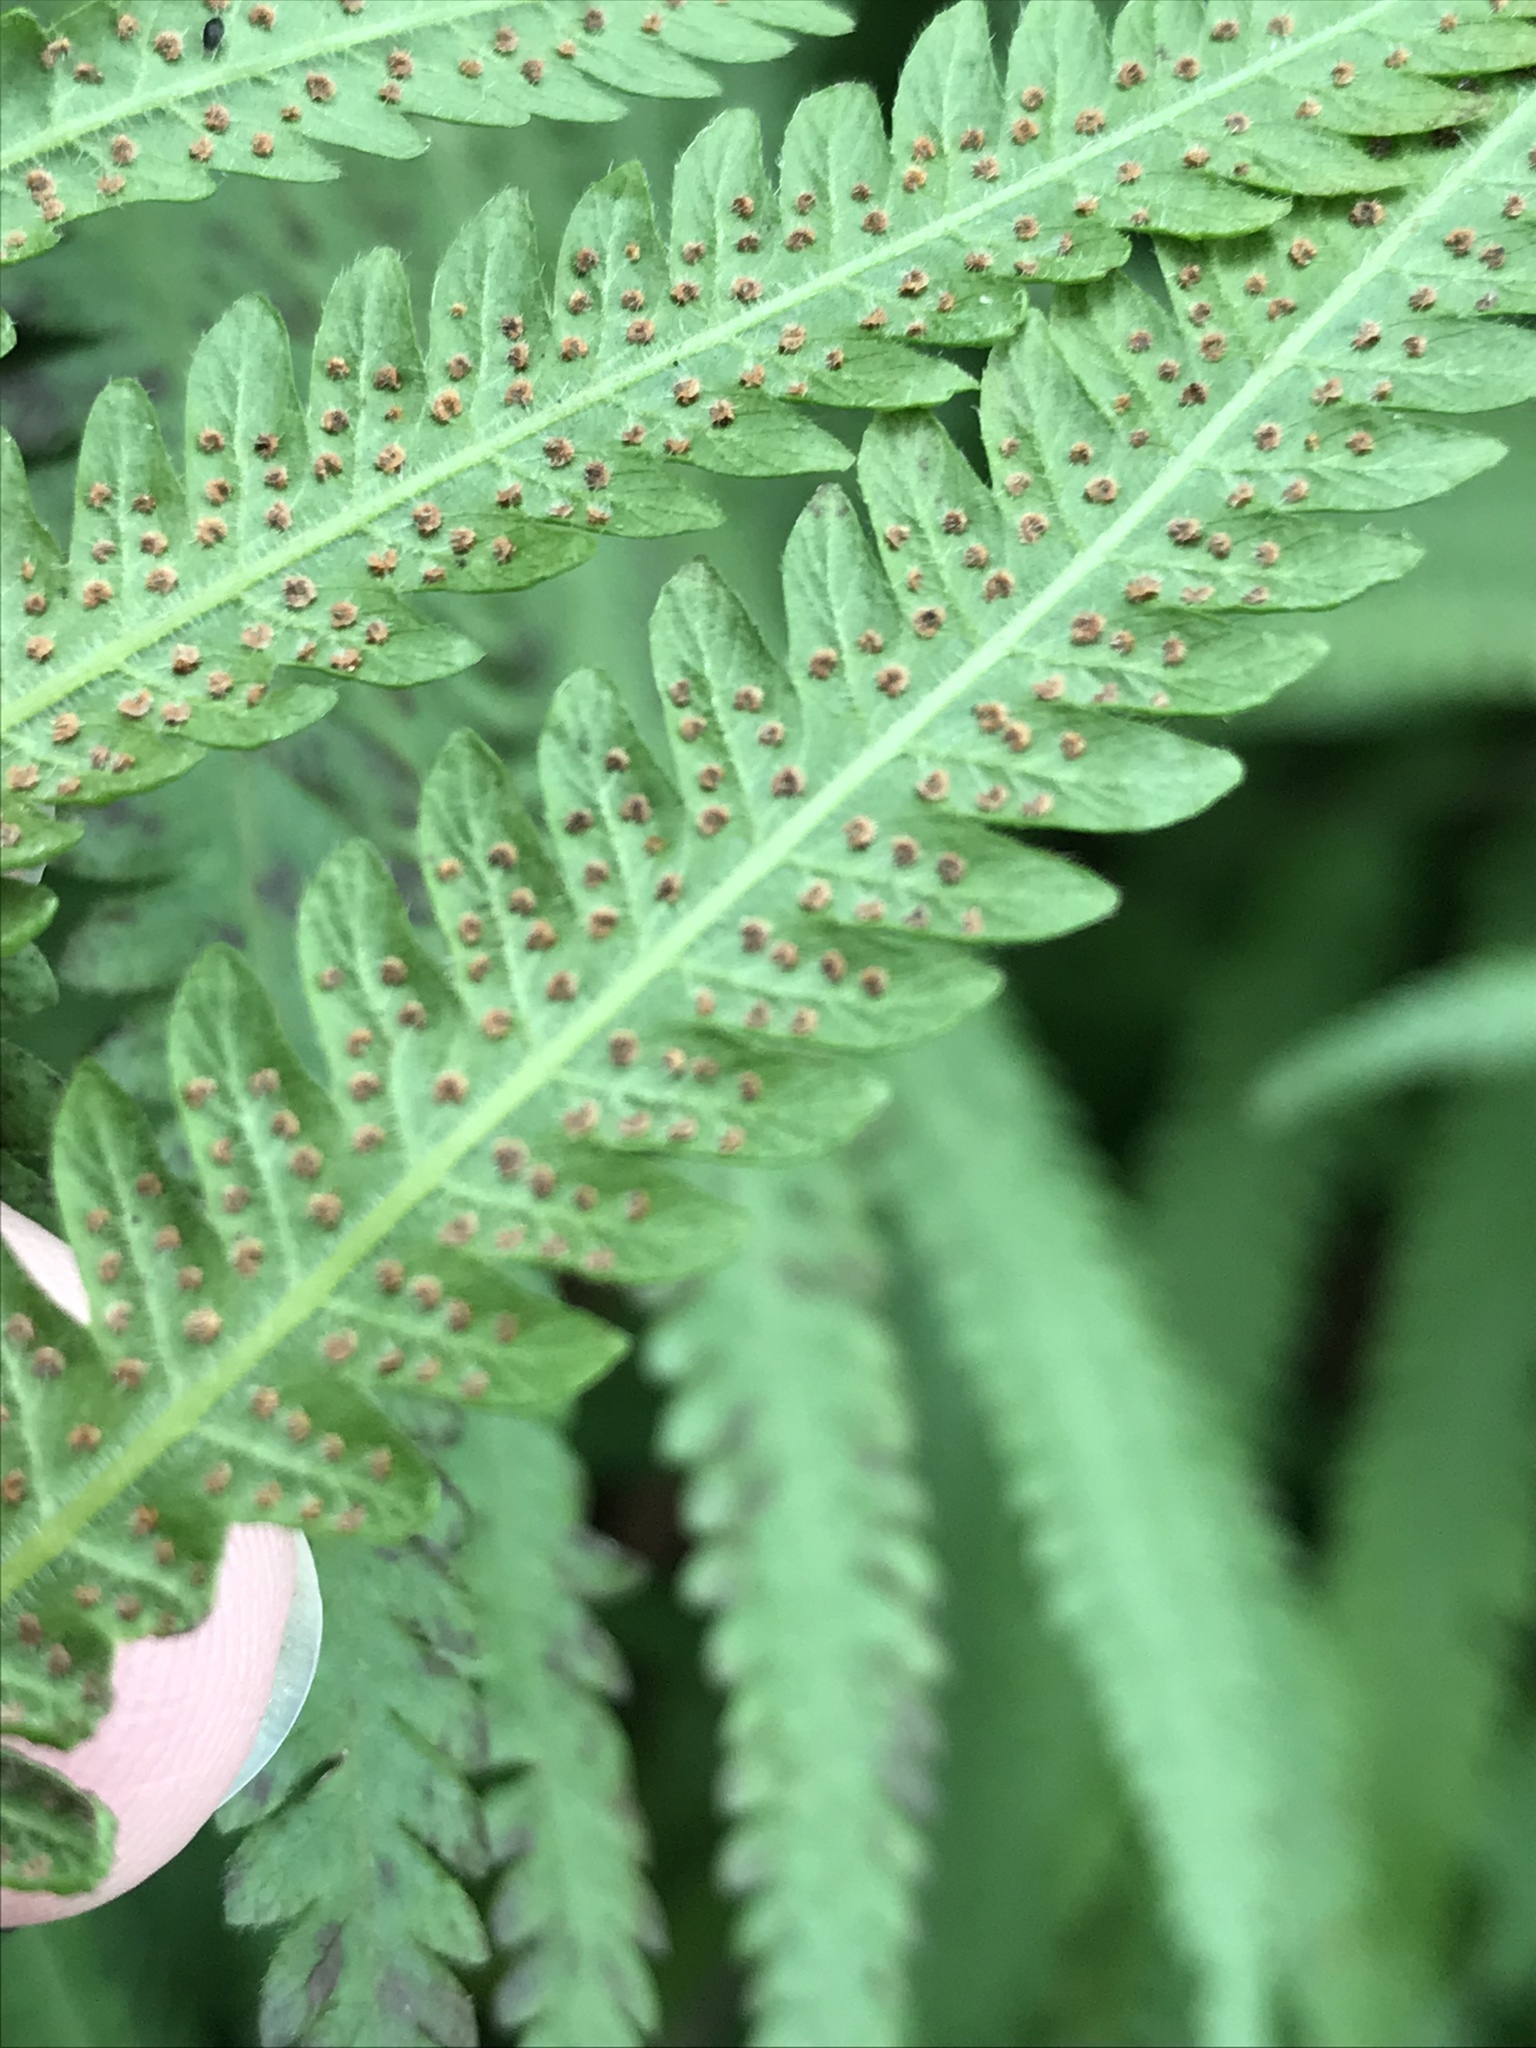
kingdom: Plantae
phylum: Tracheophyta
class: Polypodiopsida
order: Polypodiales
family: Thelypteridaceae
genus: Pelazoneuron
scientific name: Pelazoneuron kunthii
